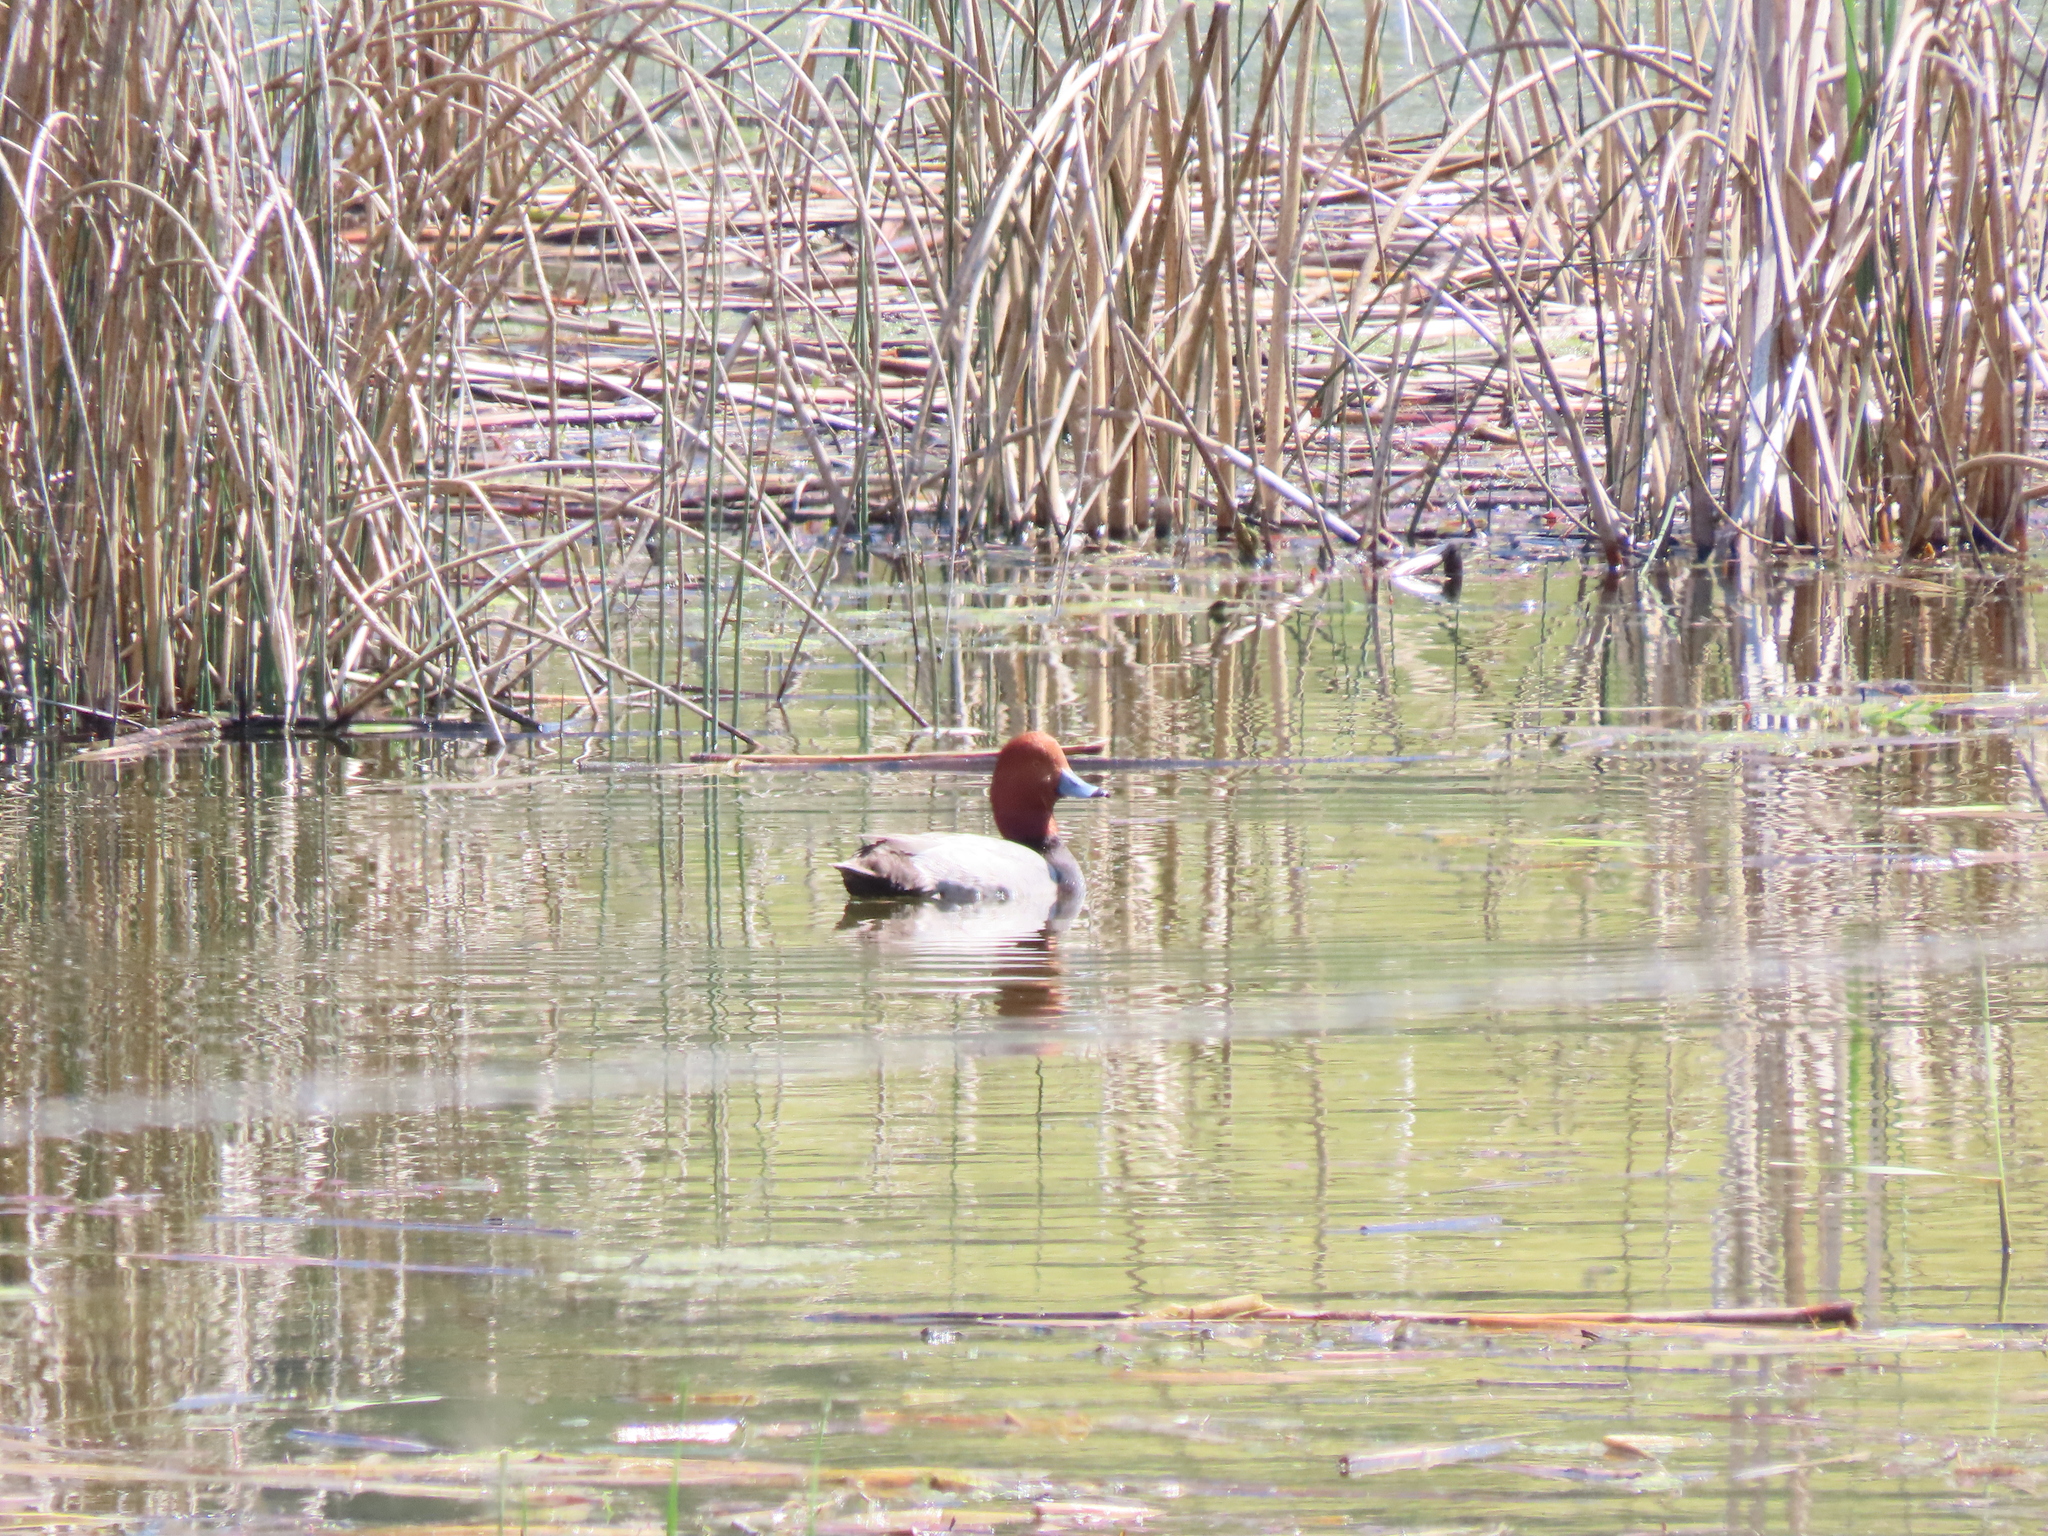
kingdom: Animalia
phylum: Chordata
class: Aves
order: Anseriformes
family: Anatidae
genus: Aythya
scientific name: Aythya americana
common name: Redhead
